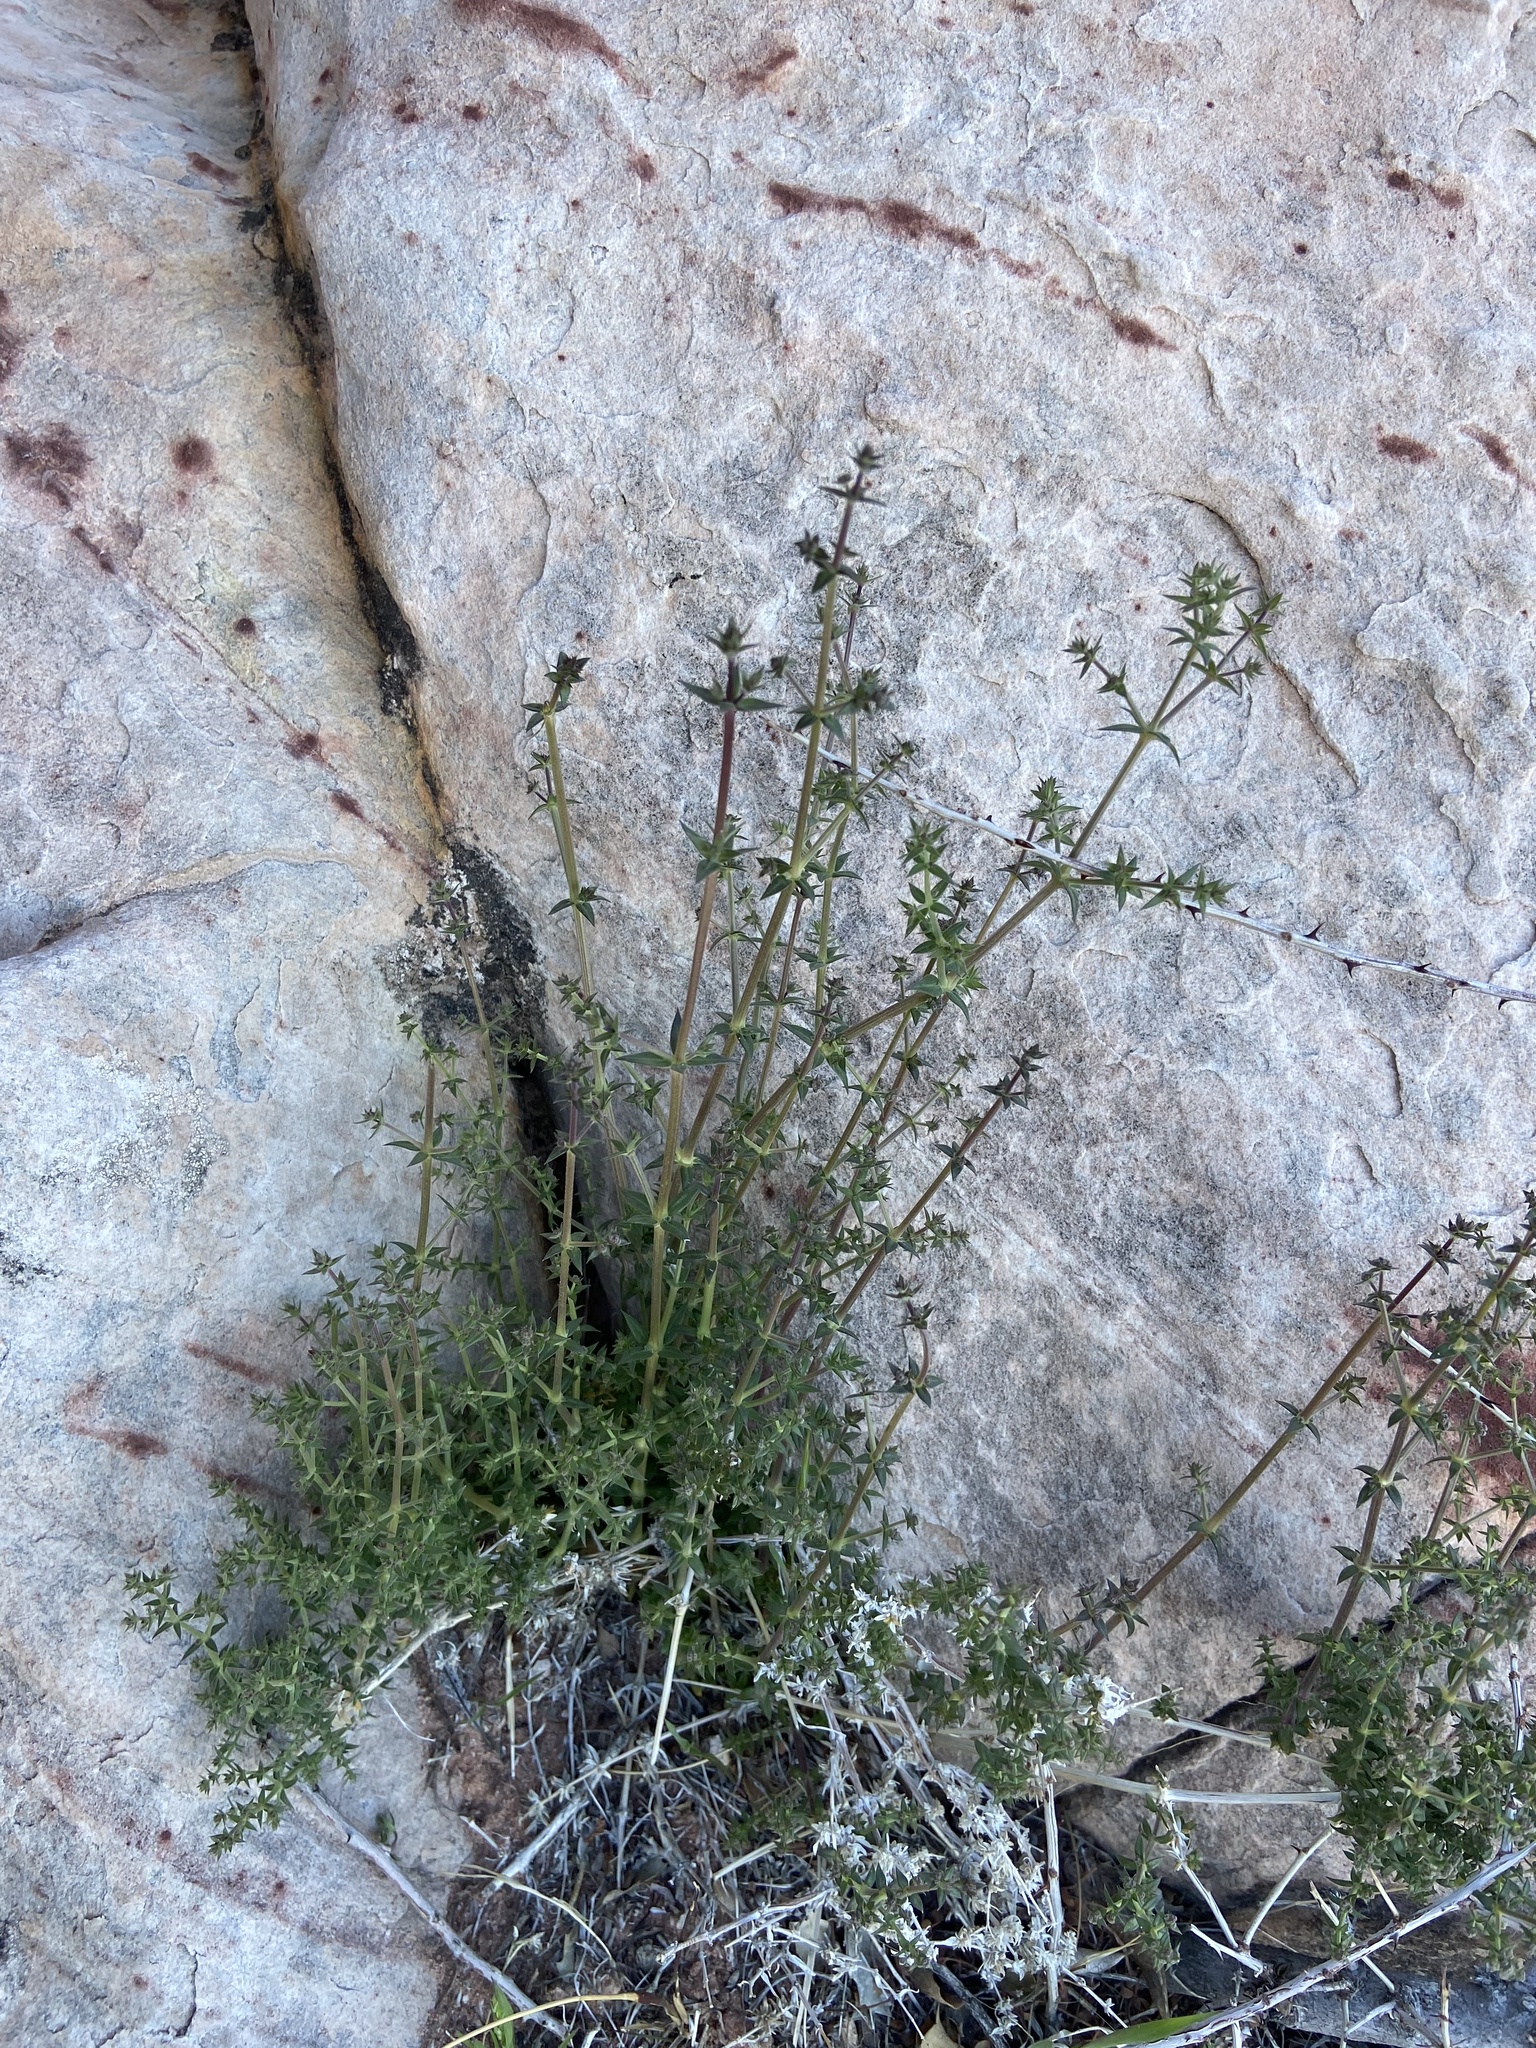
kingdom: Plantae
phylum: Tracheophyta
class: Magnoliopsida
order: Gentianales
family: Rubiaceae
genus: Galium
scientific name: Galium stellatum
